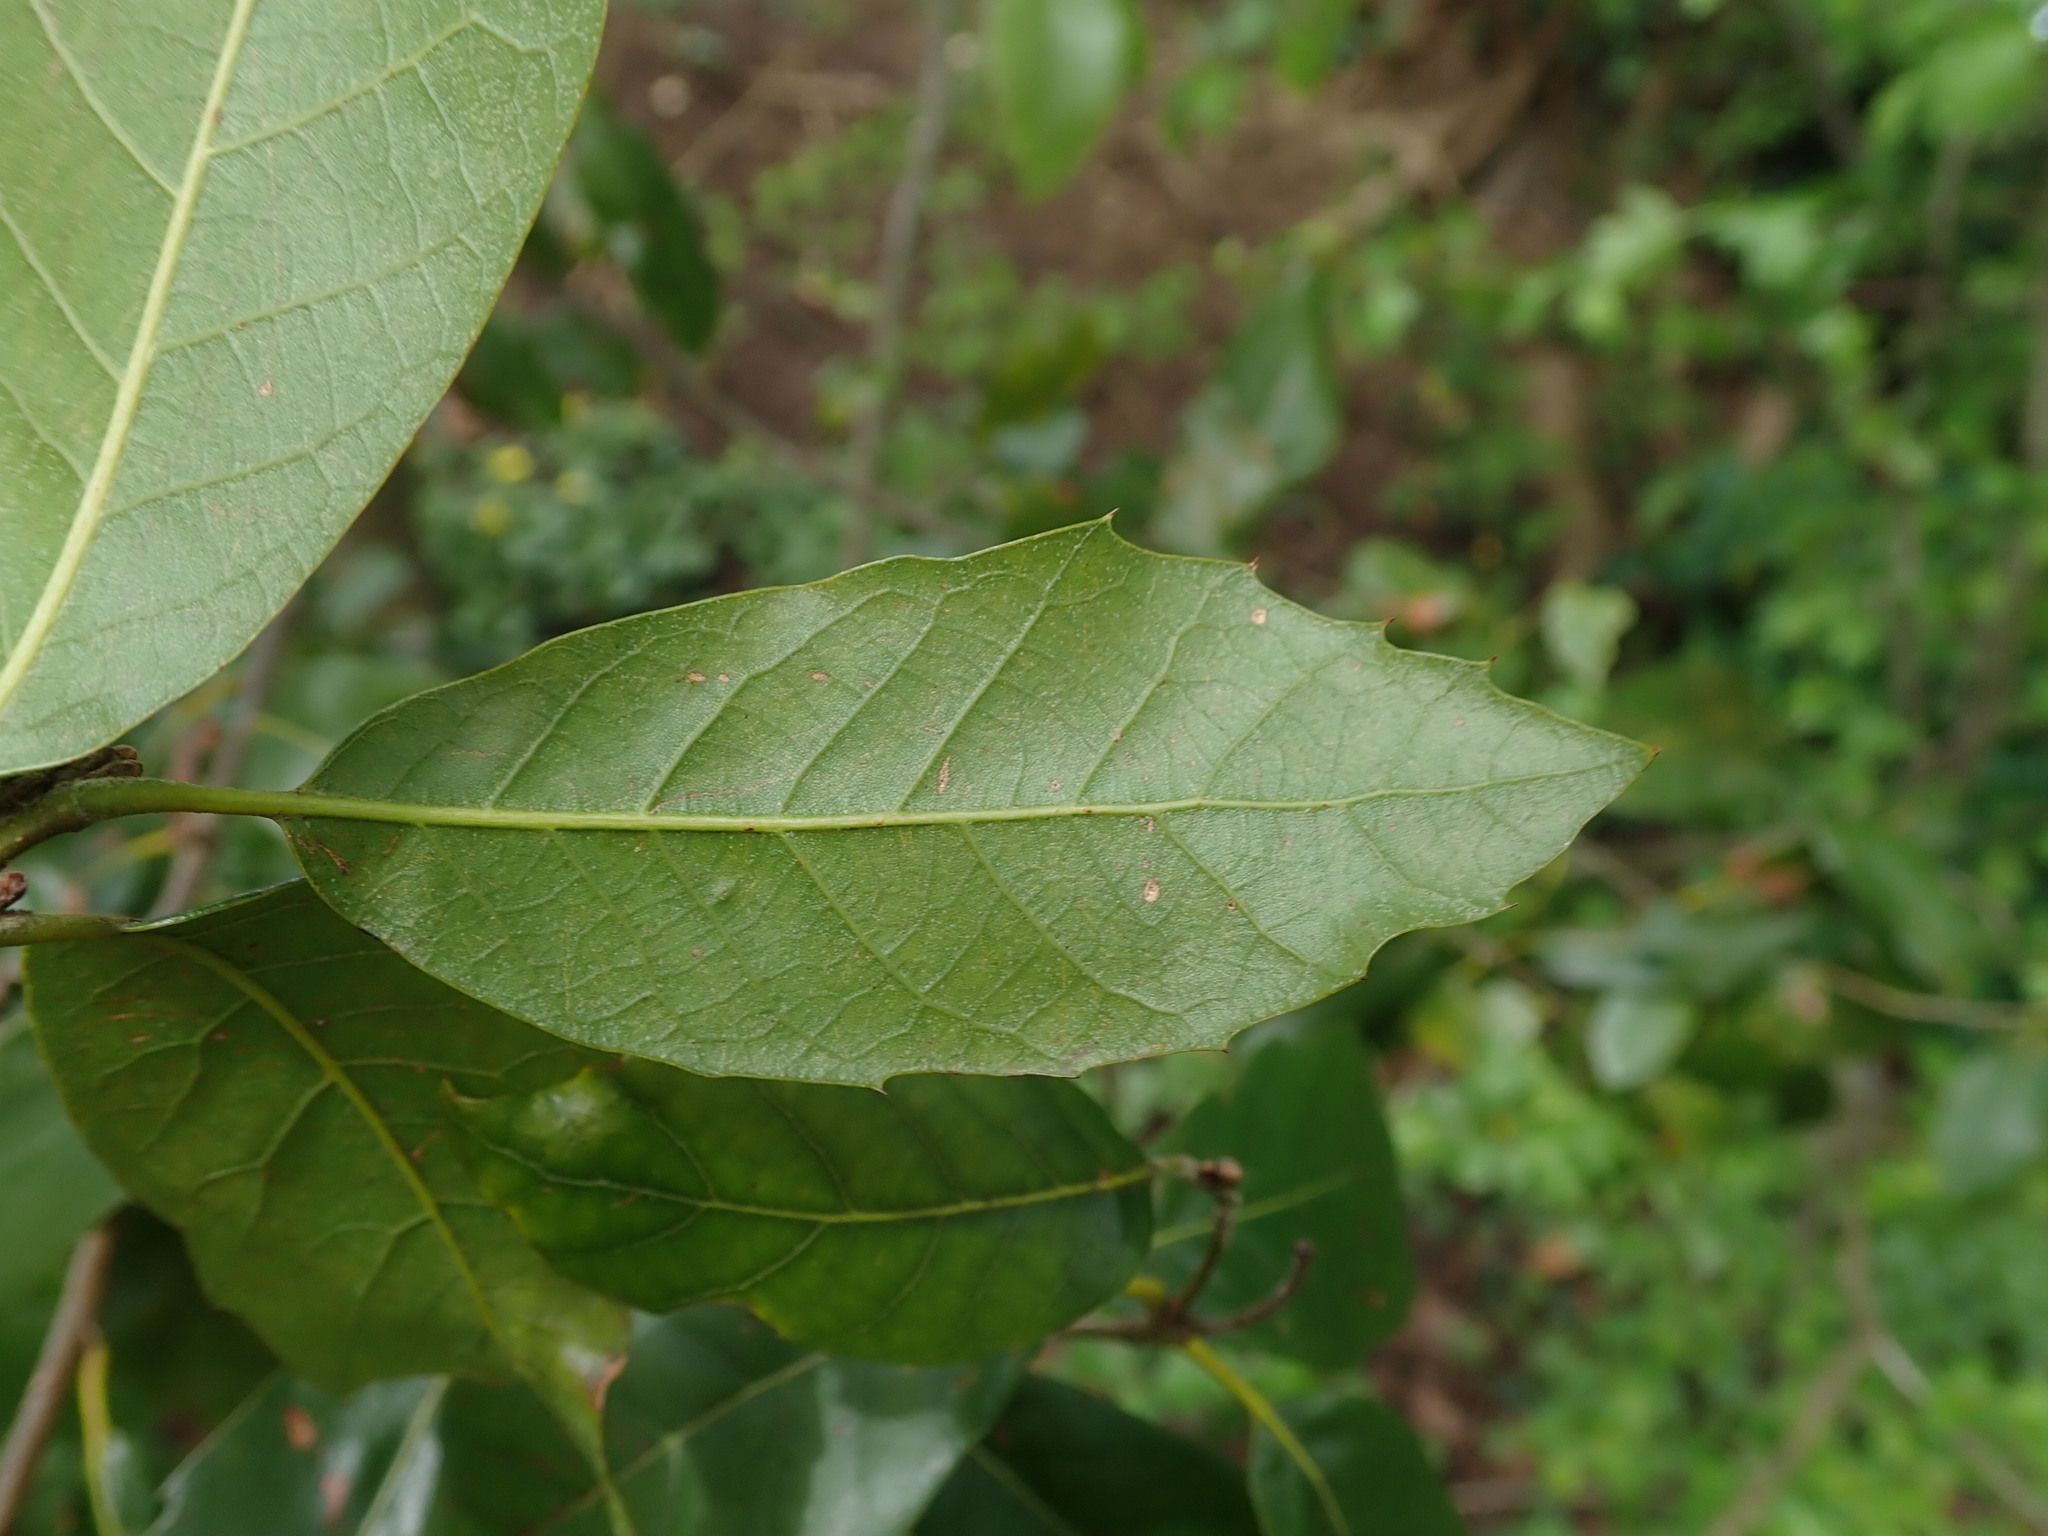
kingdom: Plantae
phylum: Tracheophyta
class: Magnoliopsida
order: Fagales
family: Fagaceae
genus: Quercus
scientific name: Quercus ilex
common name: Evergreen oak
